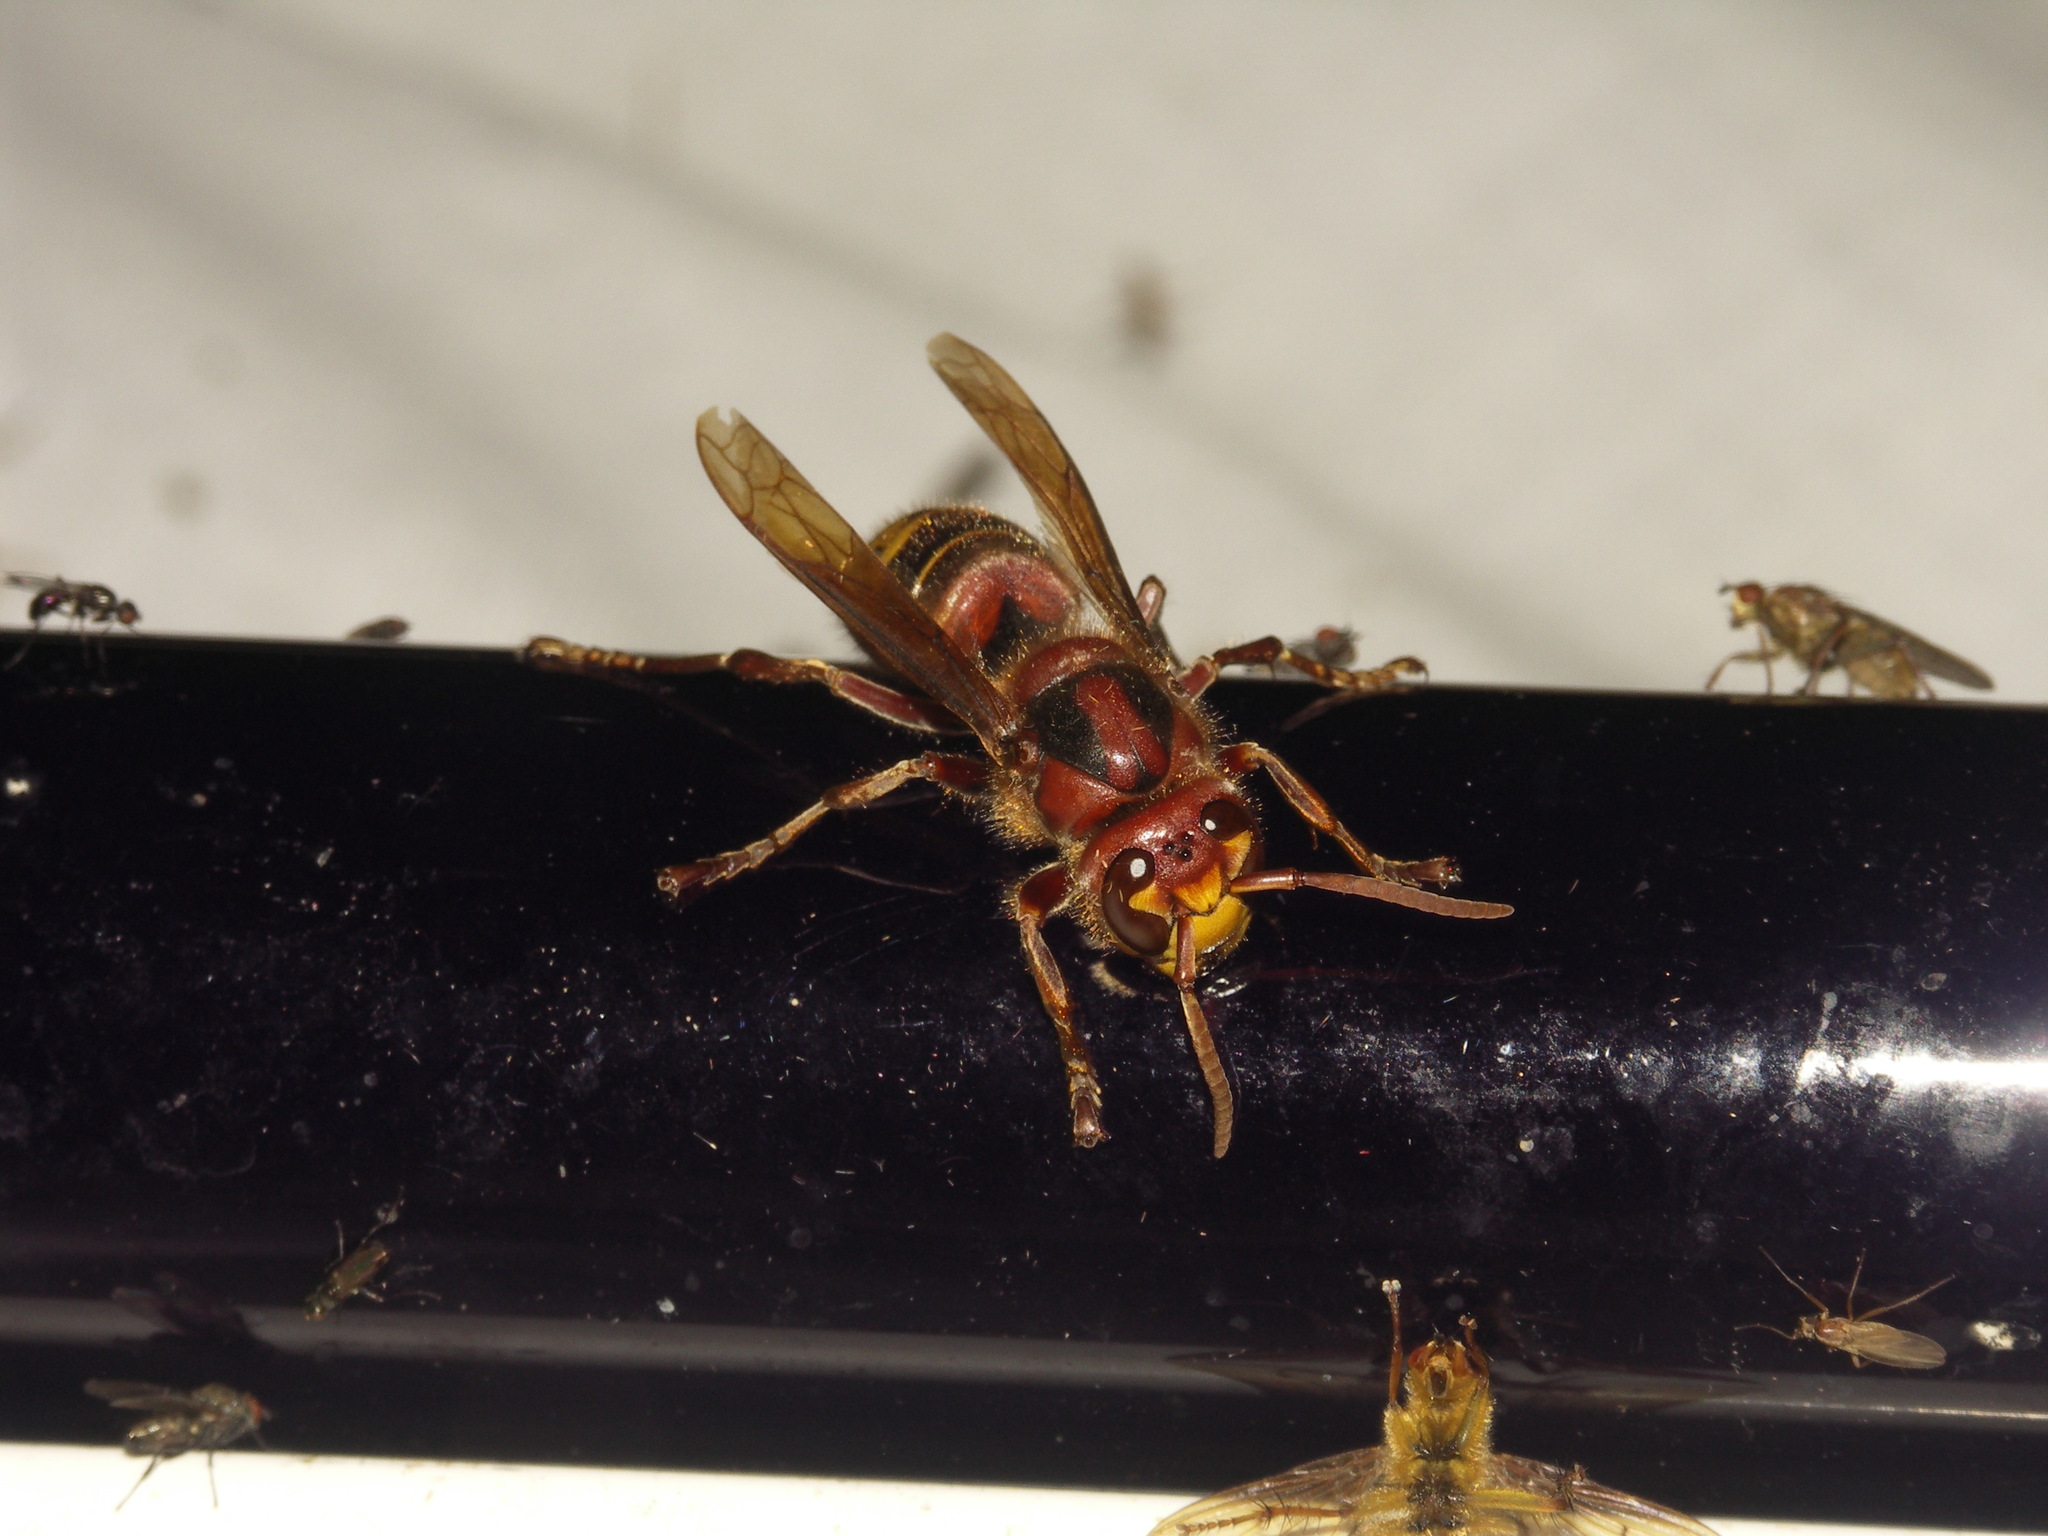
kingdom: Animalia
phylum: Arthropoda
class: Insecta
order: Hymenoptera
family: Vespidae
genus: Vespa
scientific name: Vespa crabro
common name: Hornet
